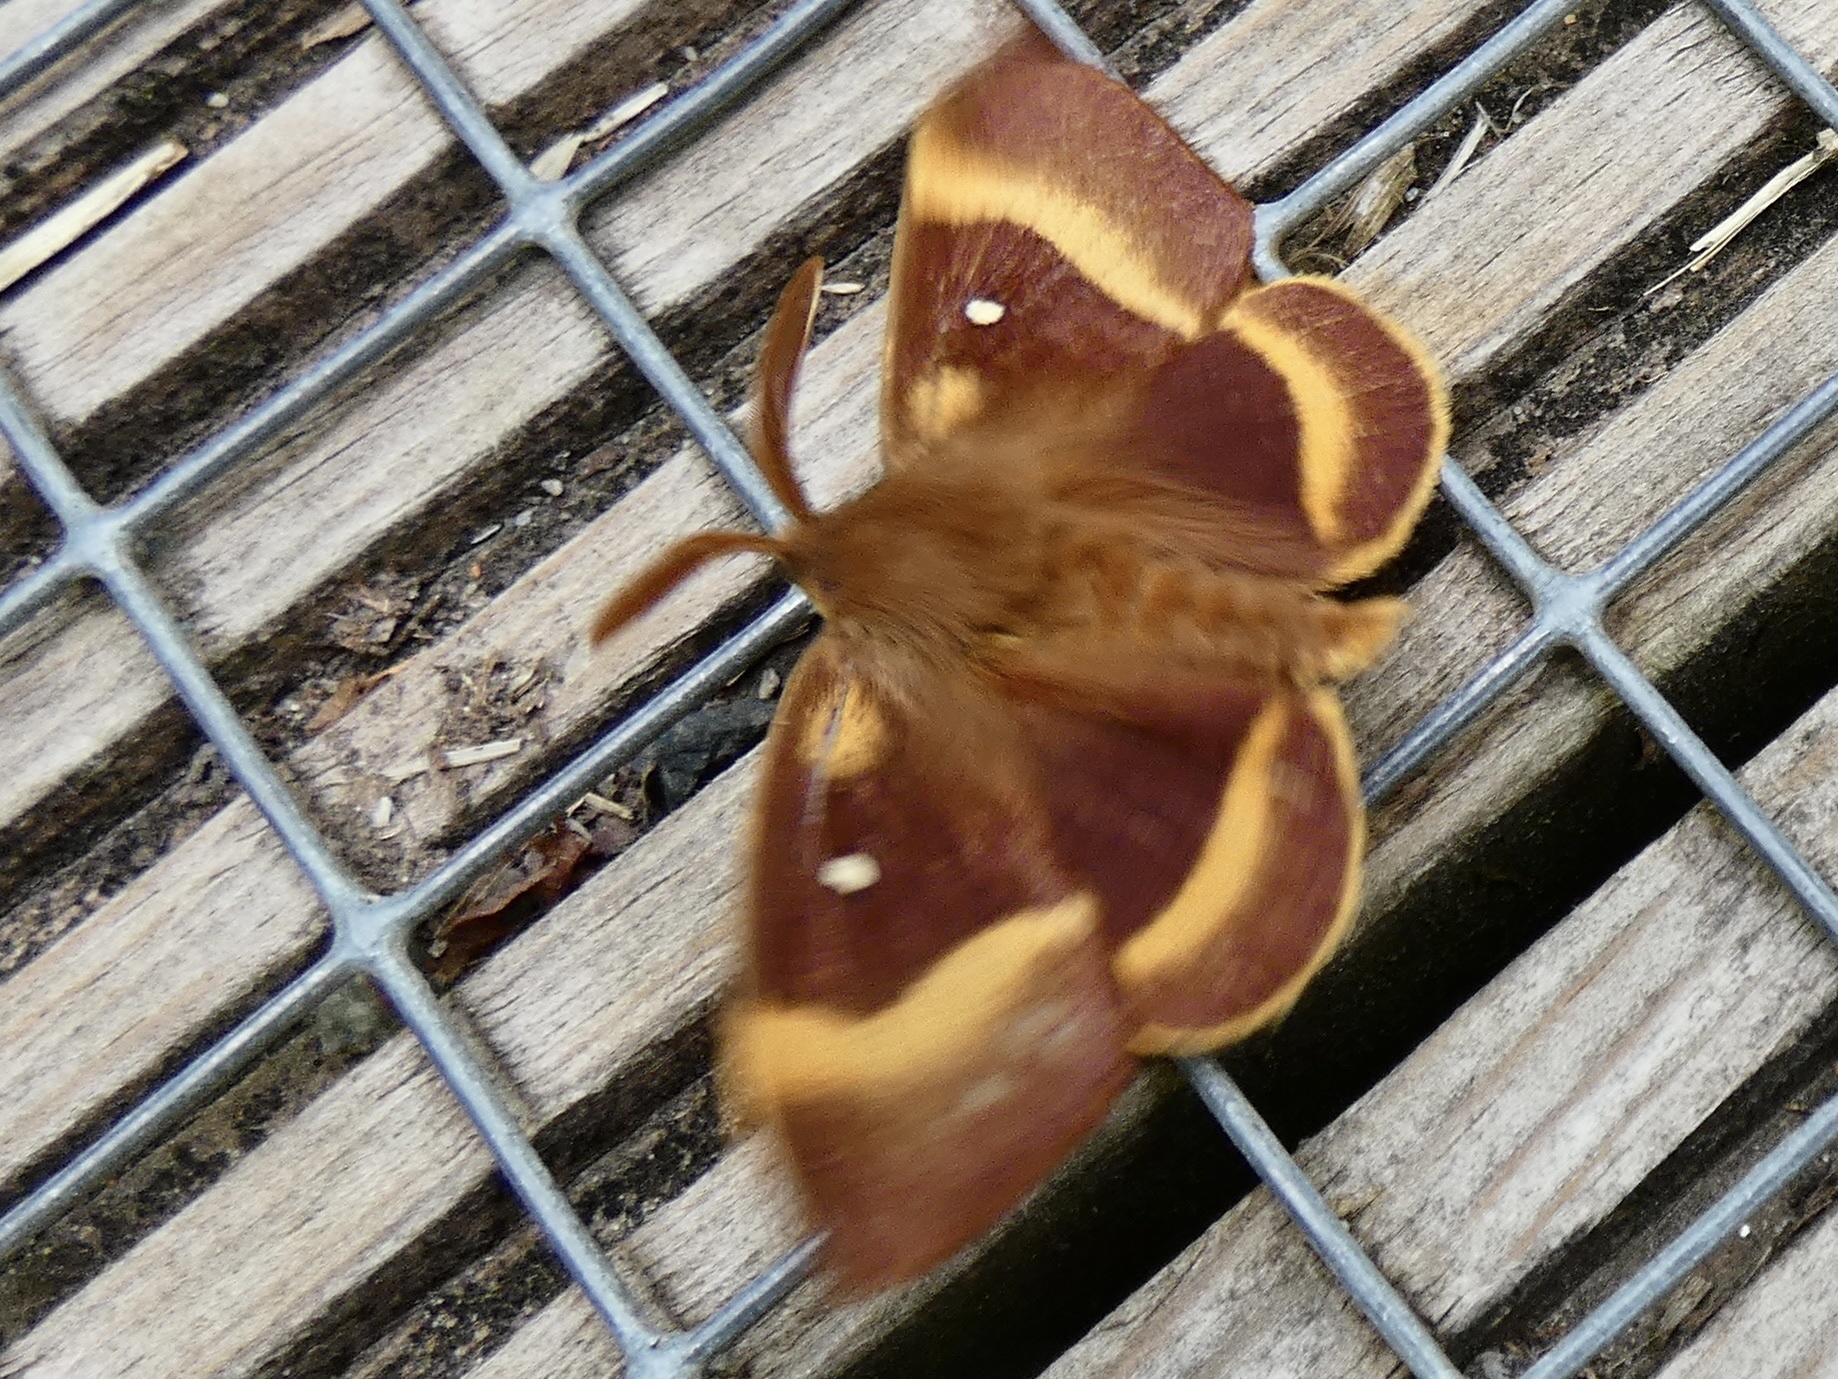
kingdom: Animalia
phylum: Arthropoda
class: Insecta
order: Lepidoptera
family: Lasiocampidae
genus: Lasiocampa
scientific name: Lasiocampa quercus
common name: Oak eggar
